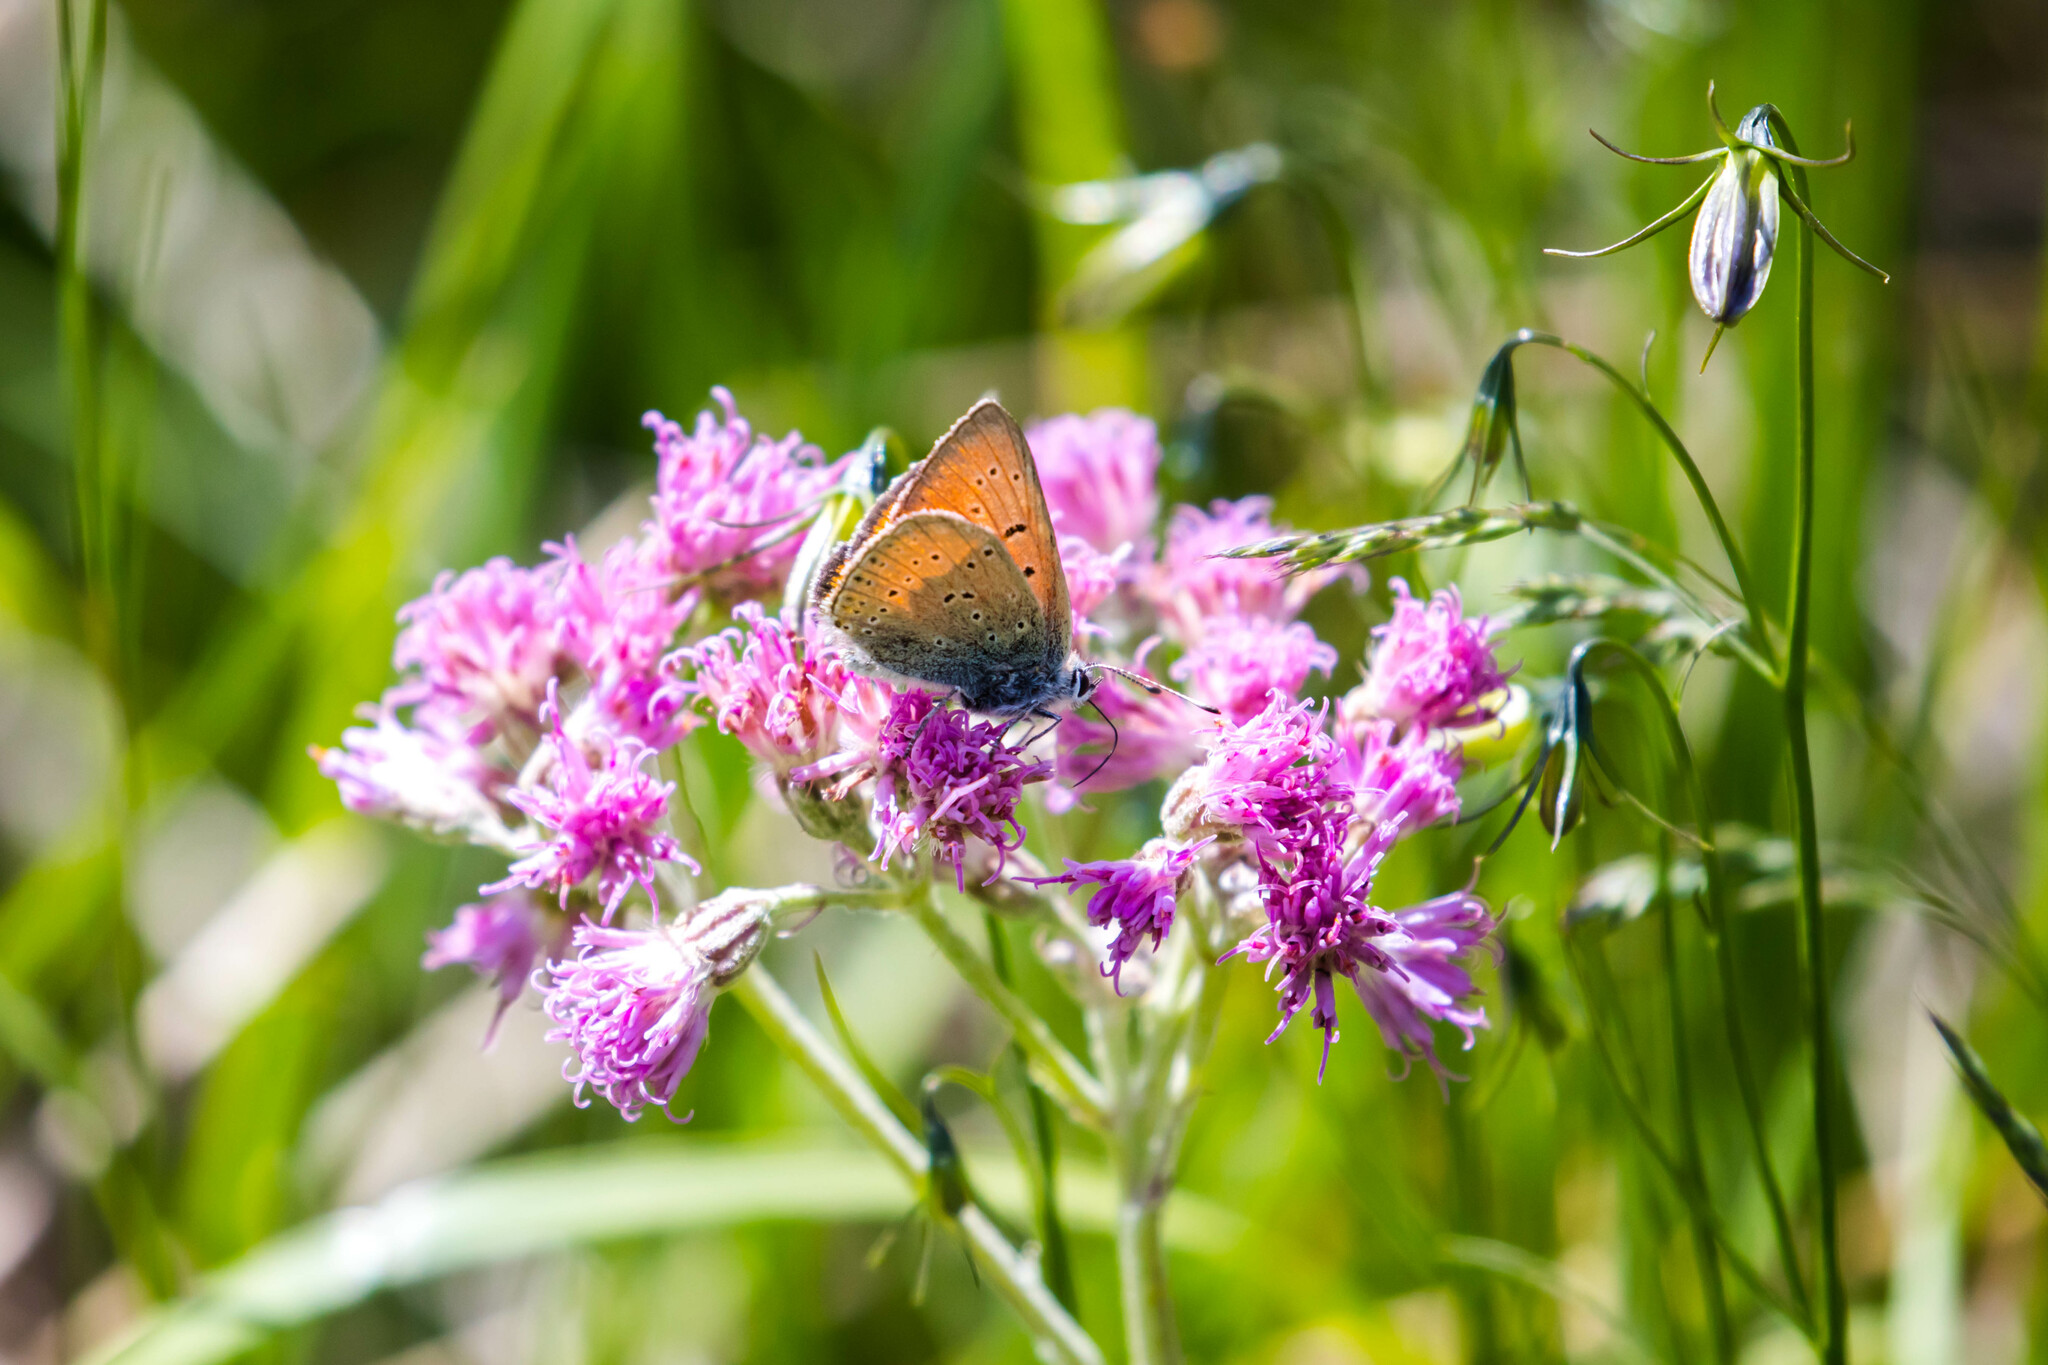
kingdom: Animalia
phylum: Arthropoda
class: Insecta
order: Lepidoptera
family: Lycaenidae
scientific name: Lycaenidae
